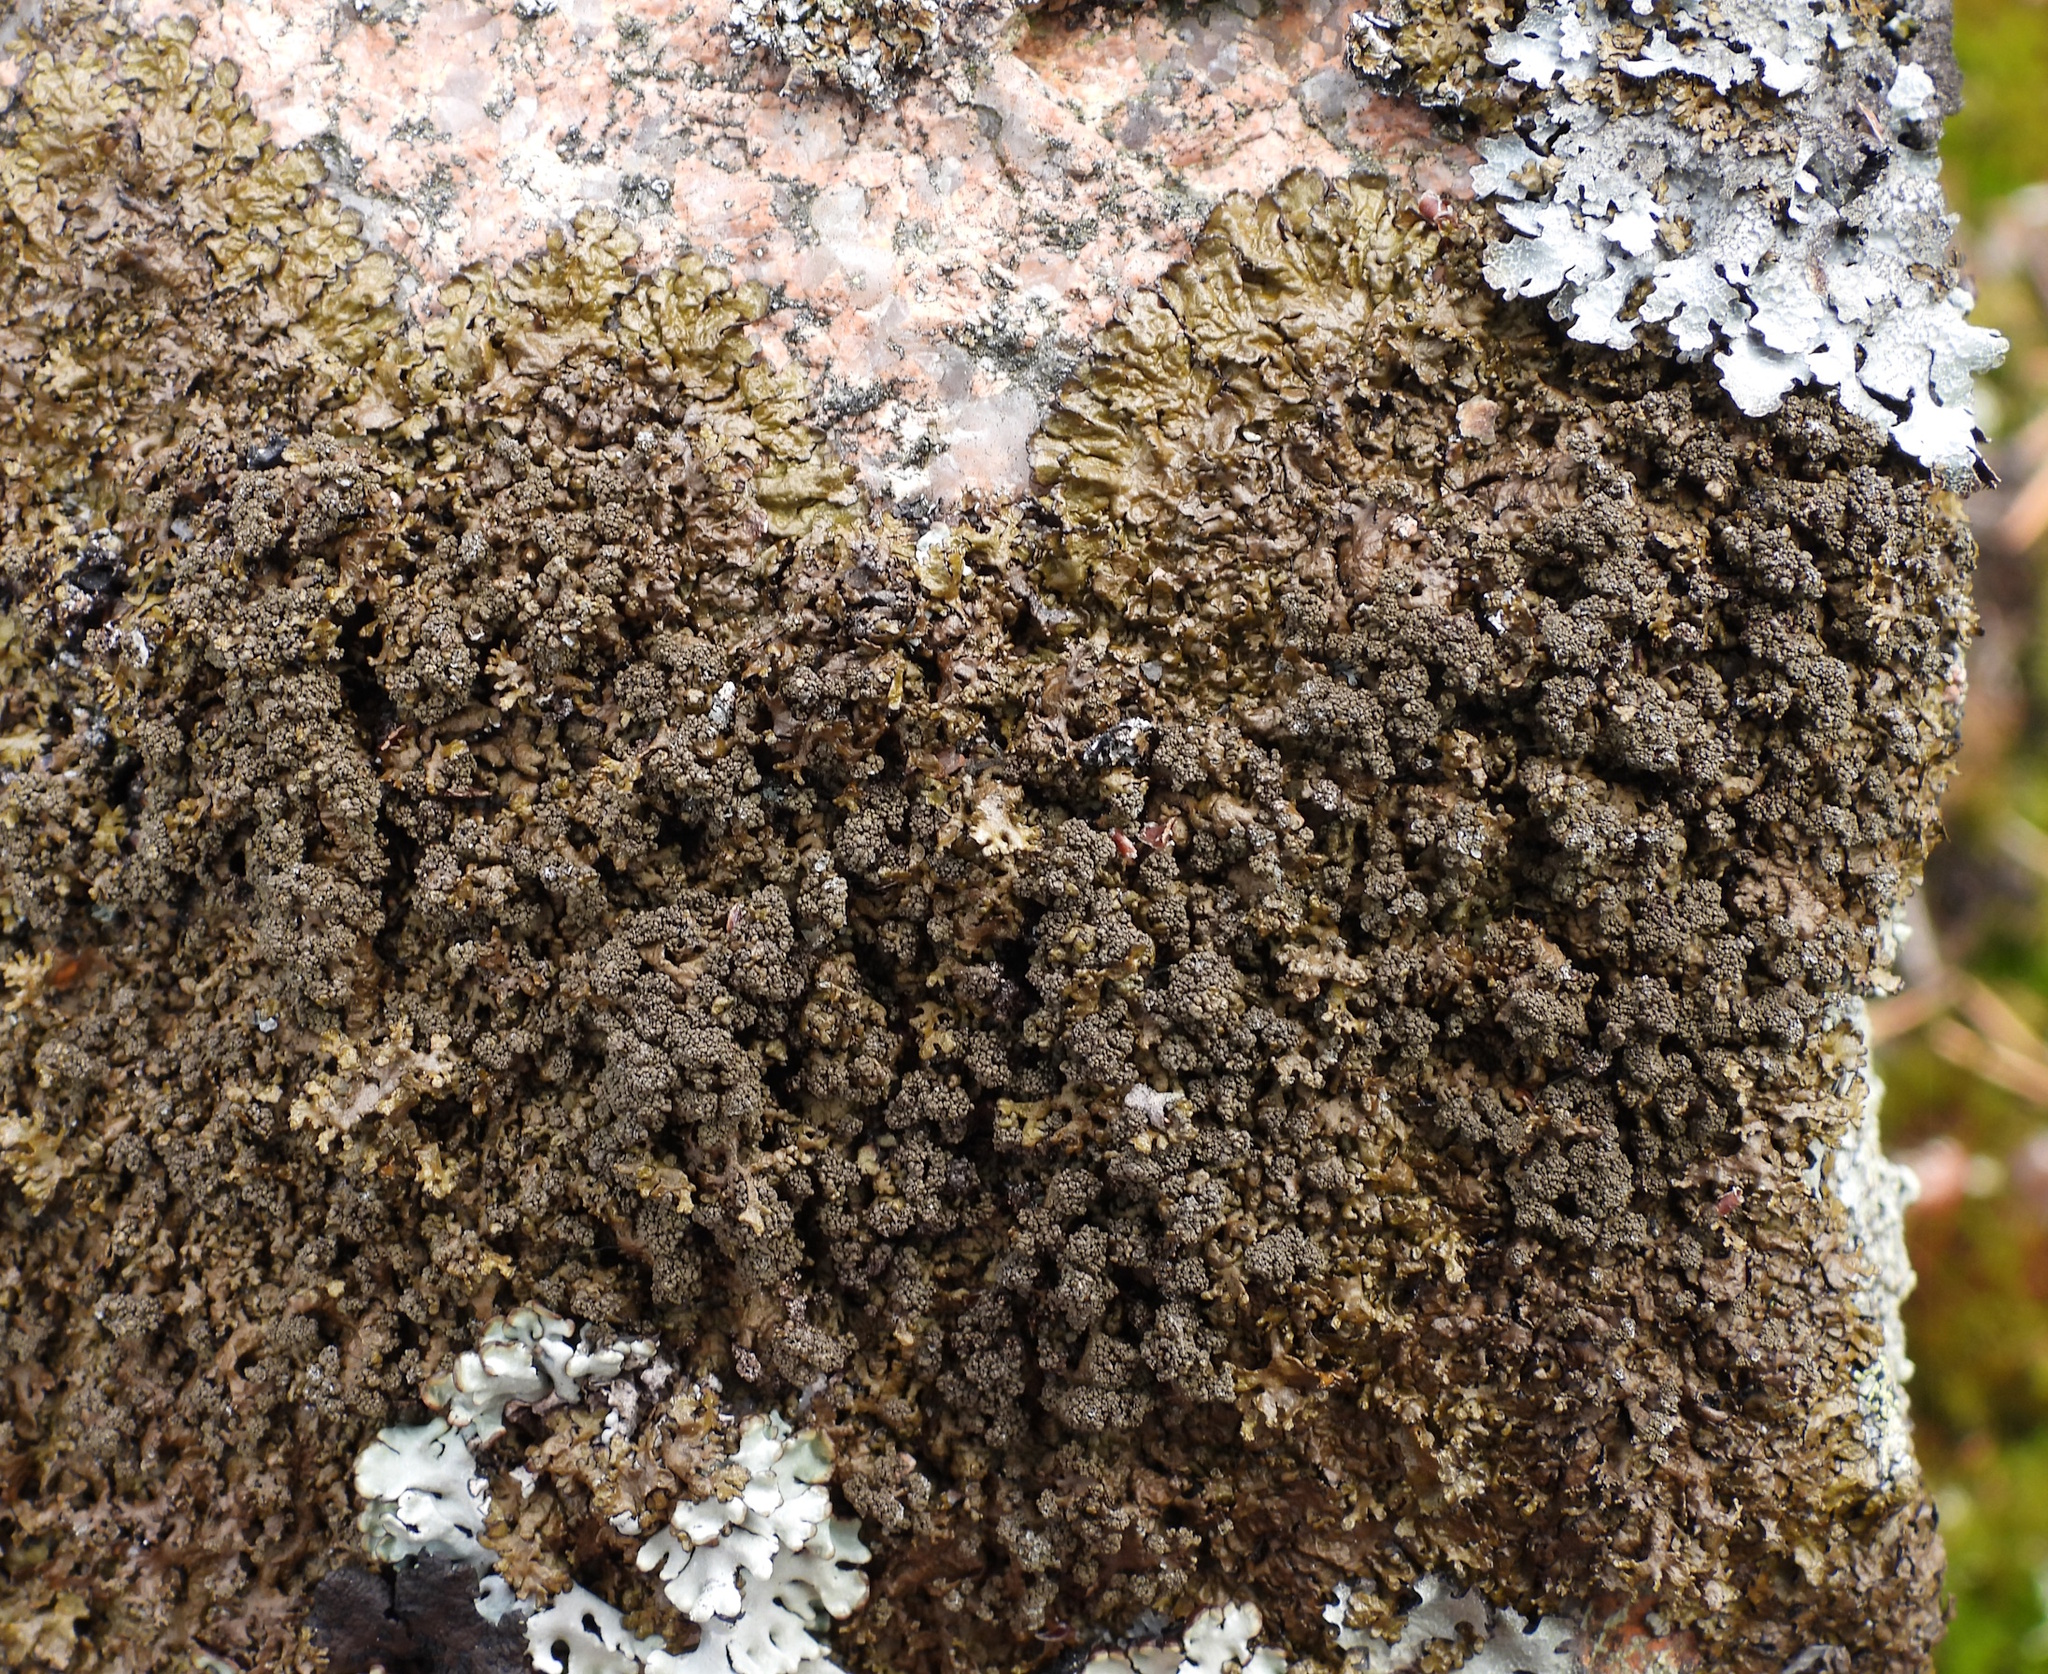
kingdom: Fungi
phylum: Ascomycota
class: Lecanoromycetes
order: Lecanorales
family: Parmeliaceae
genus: Xanthoparmelia
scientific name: Xanthoparmelia loxodes
